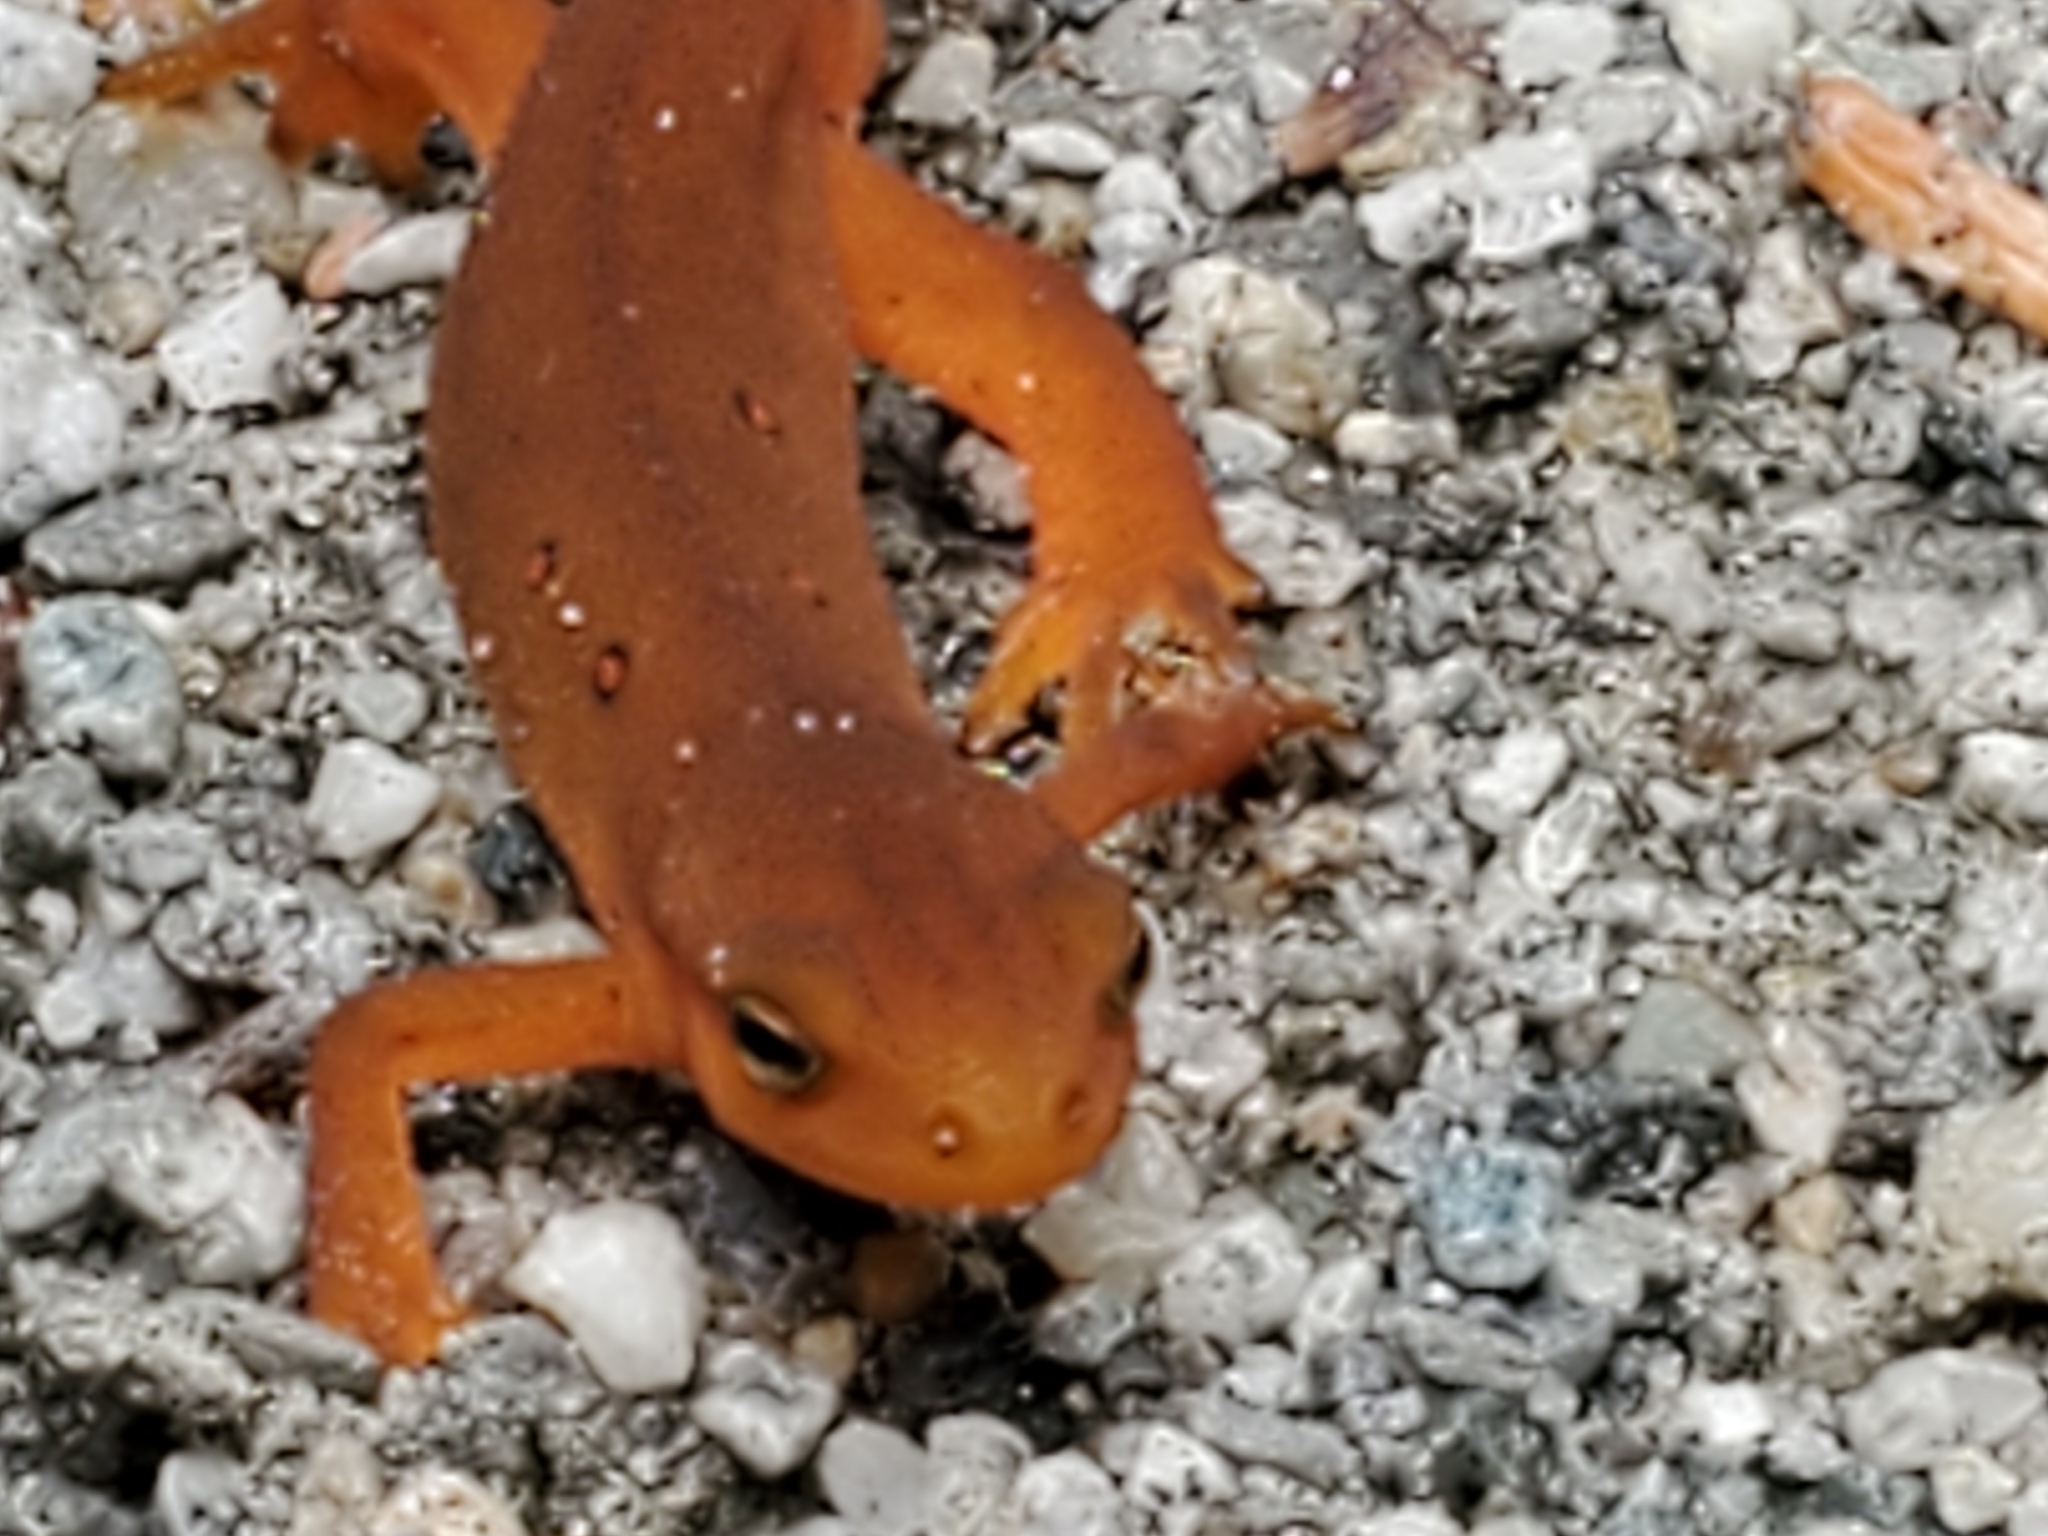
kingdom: Animalia
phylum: Chordata
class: Amphibia
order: Caudata
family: Salamandridae
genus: Notophthalmus
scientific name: Notophthalmus viridescens
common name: Eastern newt
